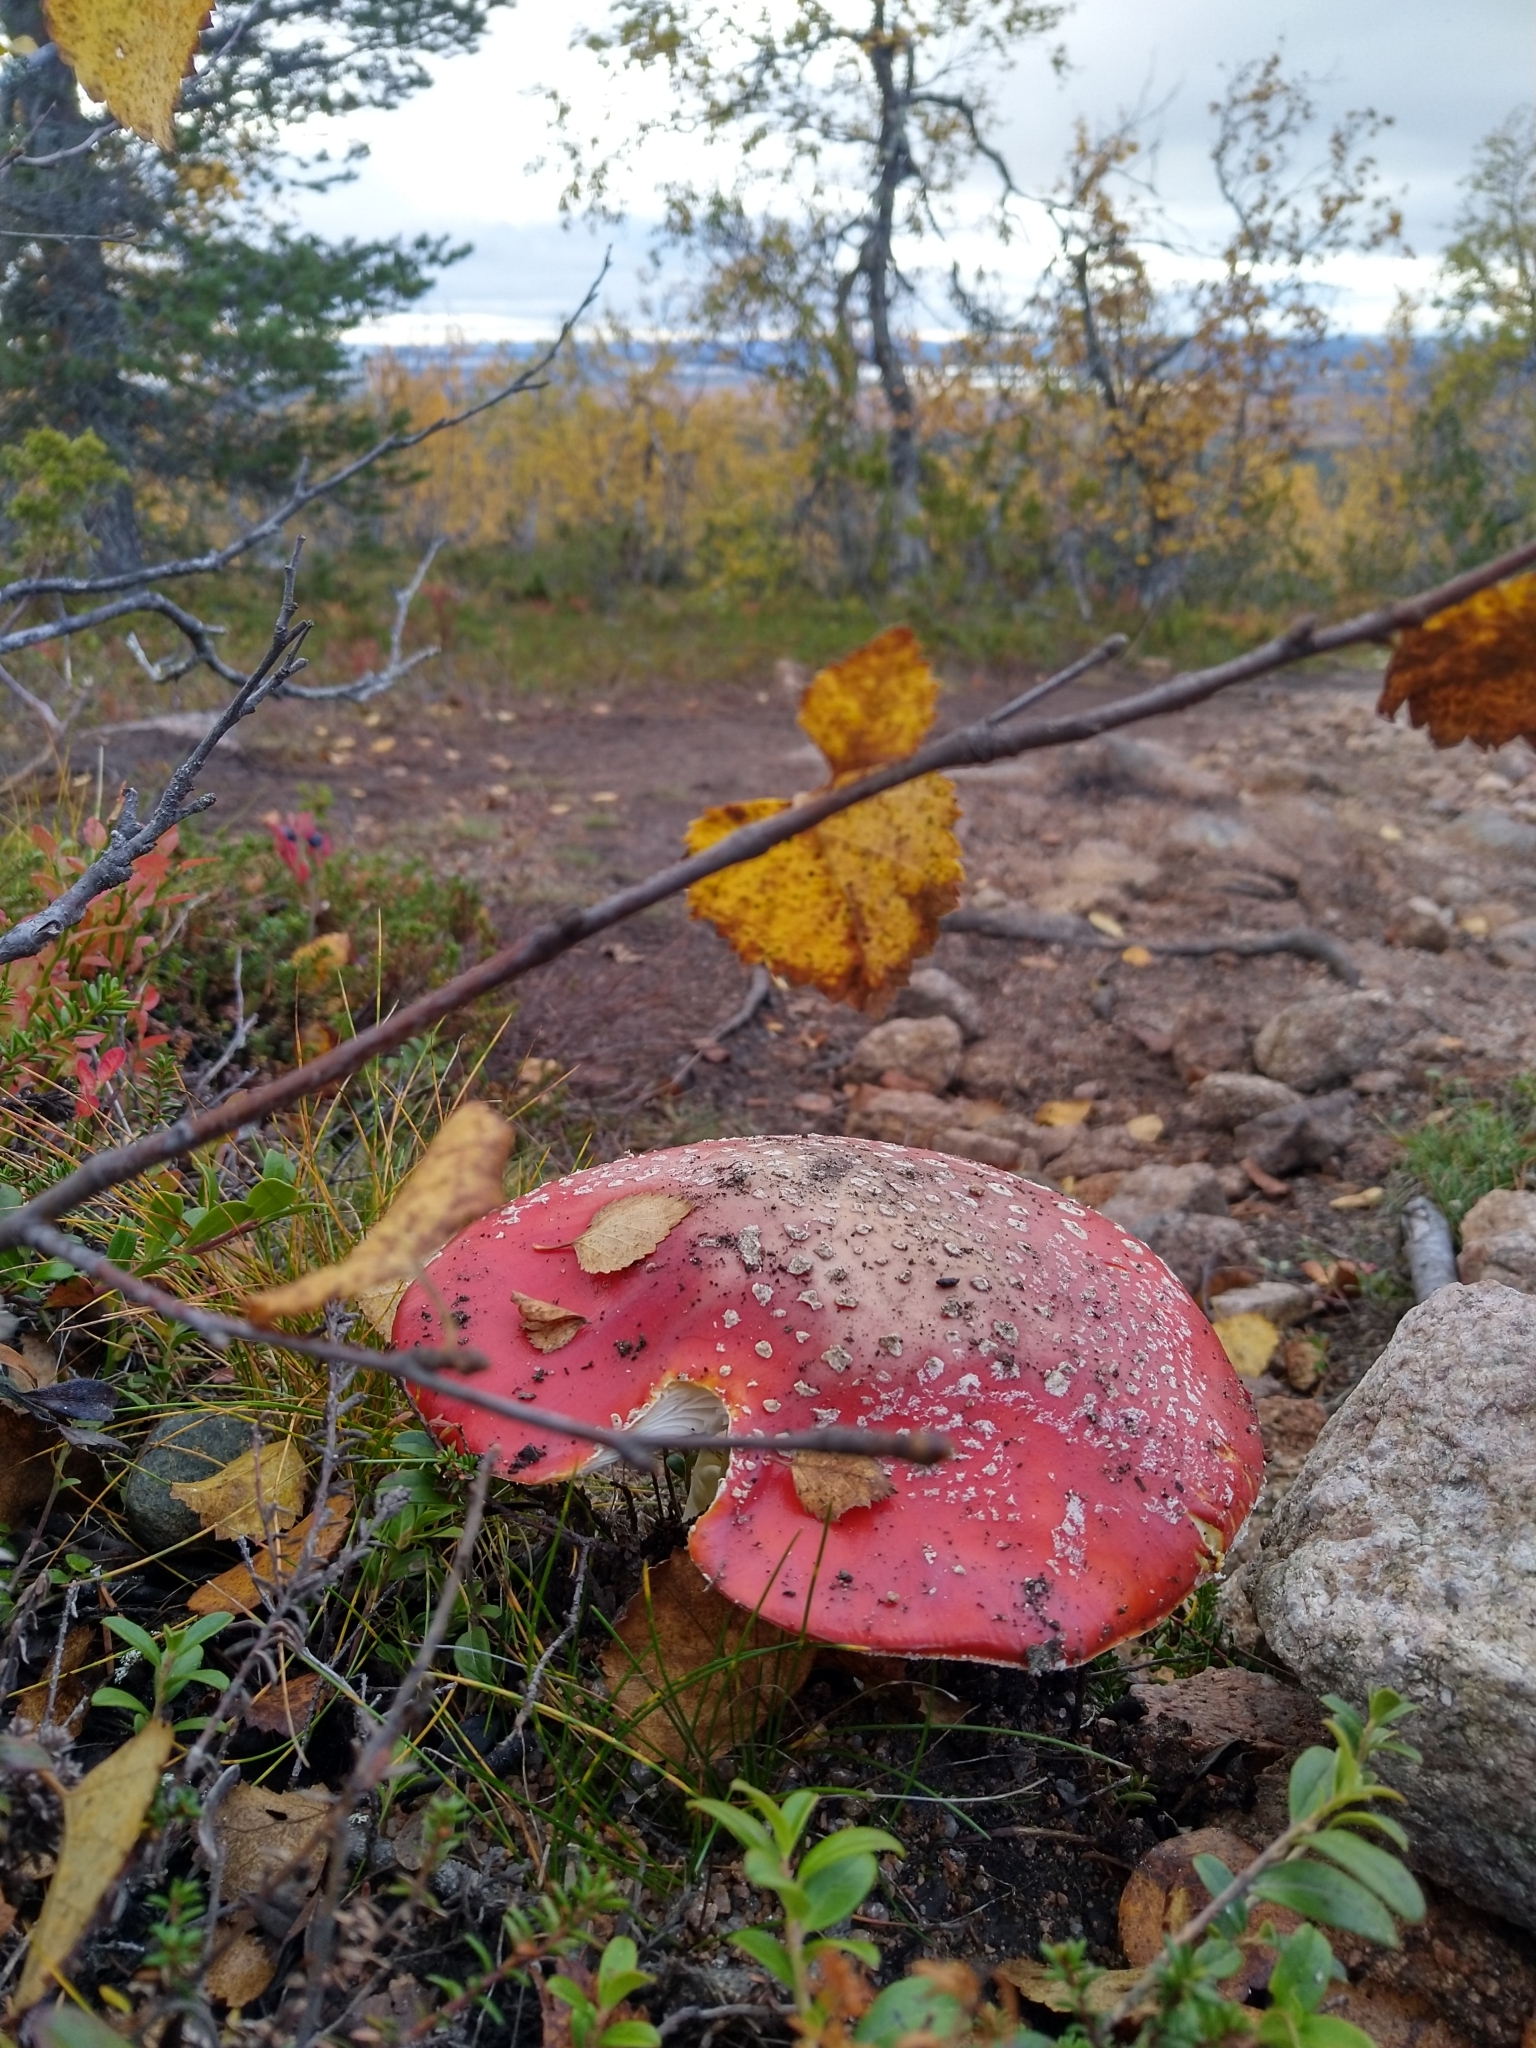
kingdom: Fungi
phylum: Basidiomycota
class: Agaricomycetes
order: Agaricales
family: Amanitaceae
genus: Amanita
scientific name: Amanita muscaria
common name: Fly agaric
